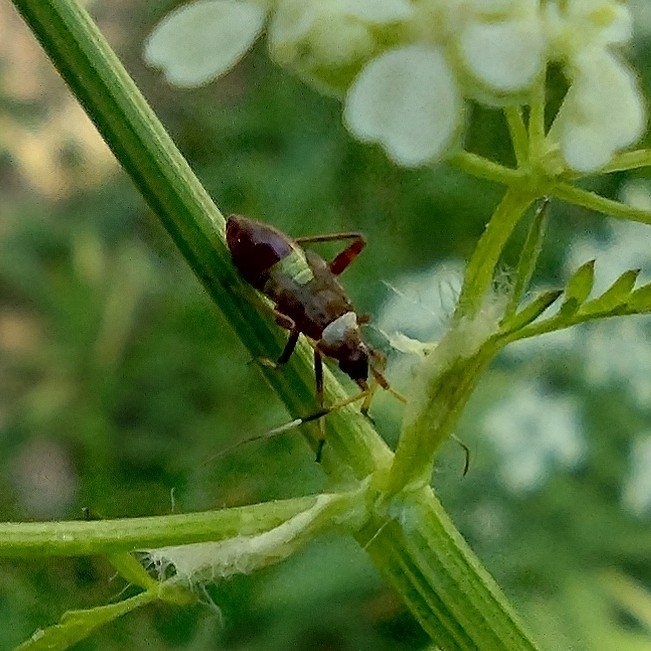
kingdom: Animalia
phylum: Arthropoda
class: Insecta
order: Hemiptera
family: Miridae
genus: Closterotomus
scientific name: Closterotomus biclavatus
